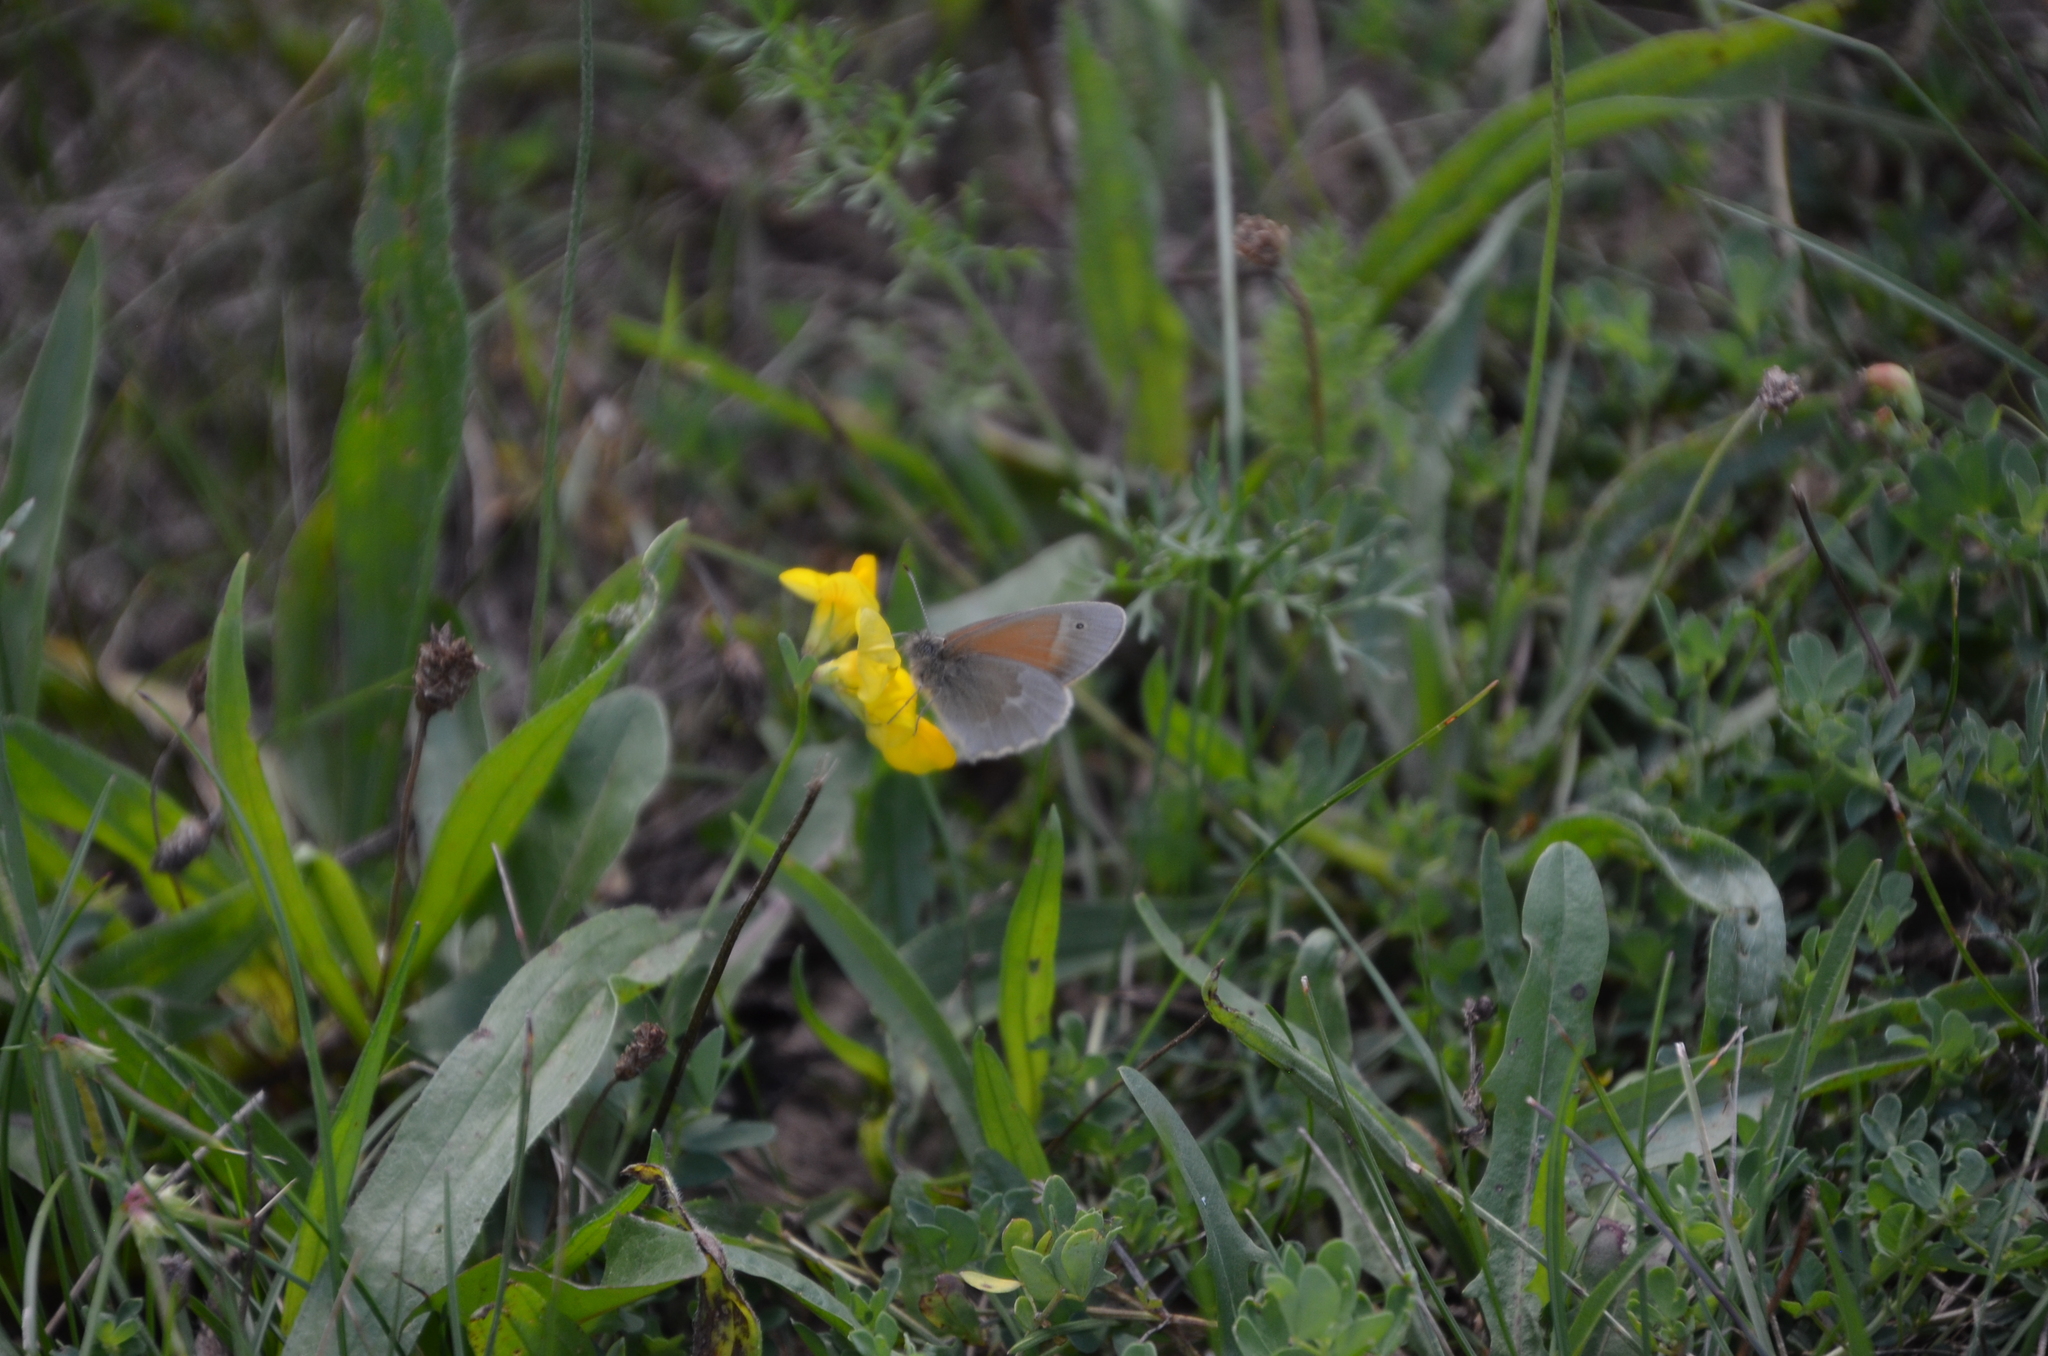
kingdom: Animalia
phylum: Arthropoda
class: Insecta
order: Lepidoptera
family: Nymphalidae
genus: Coenonympha
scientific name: Coenonympha california
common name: Common ringlet
